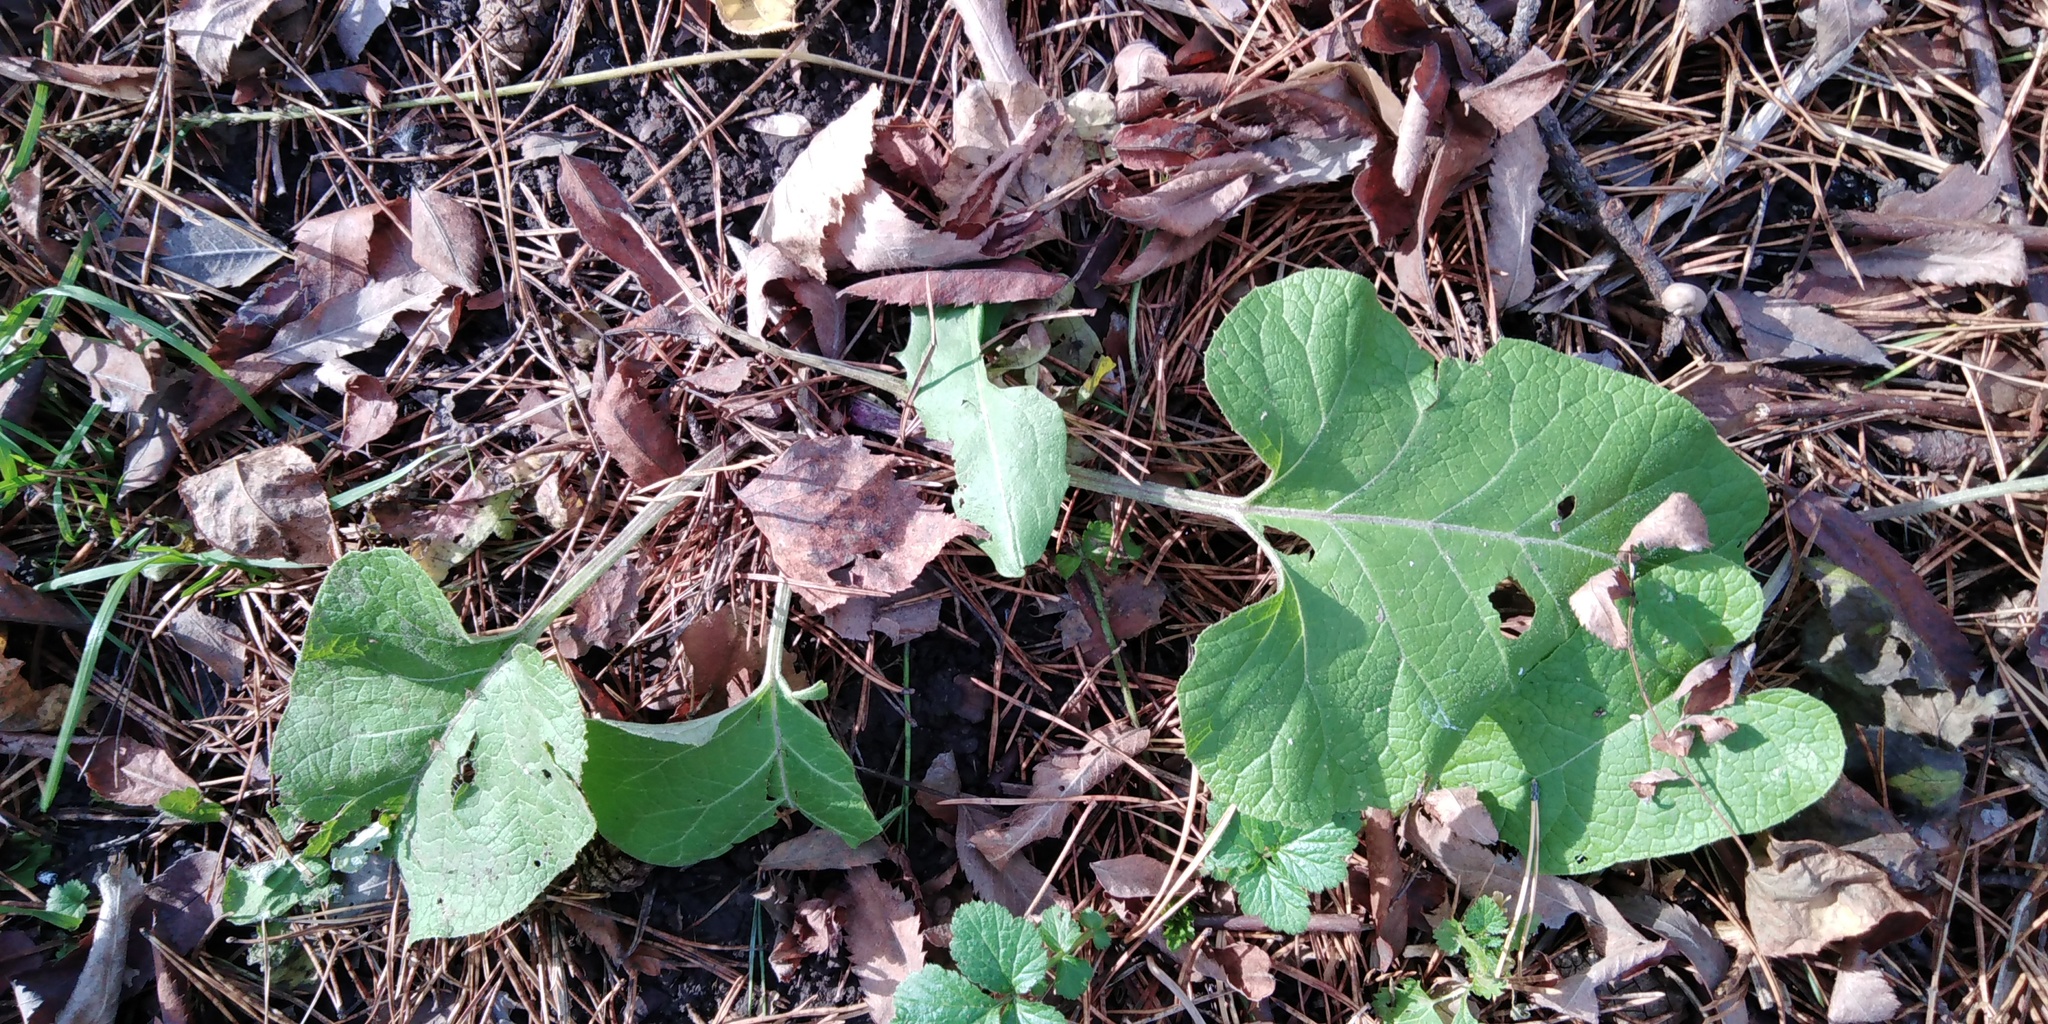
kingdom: Plantae
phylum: Tracheophyta
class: Magnoliopsida
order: Asterales
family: Asteraceae
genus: Arctium
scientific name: Arctium tomentosum
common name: Woolly burdock
